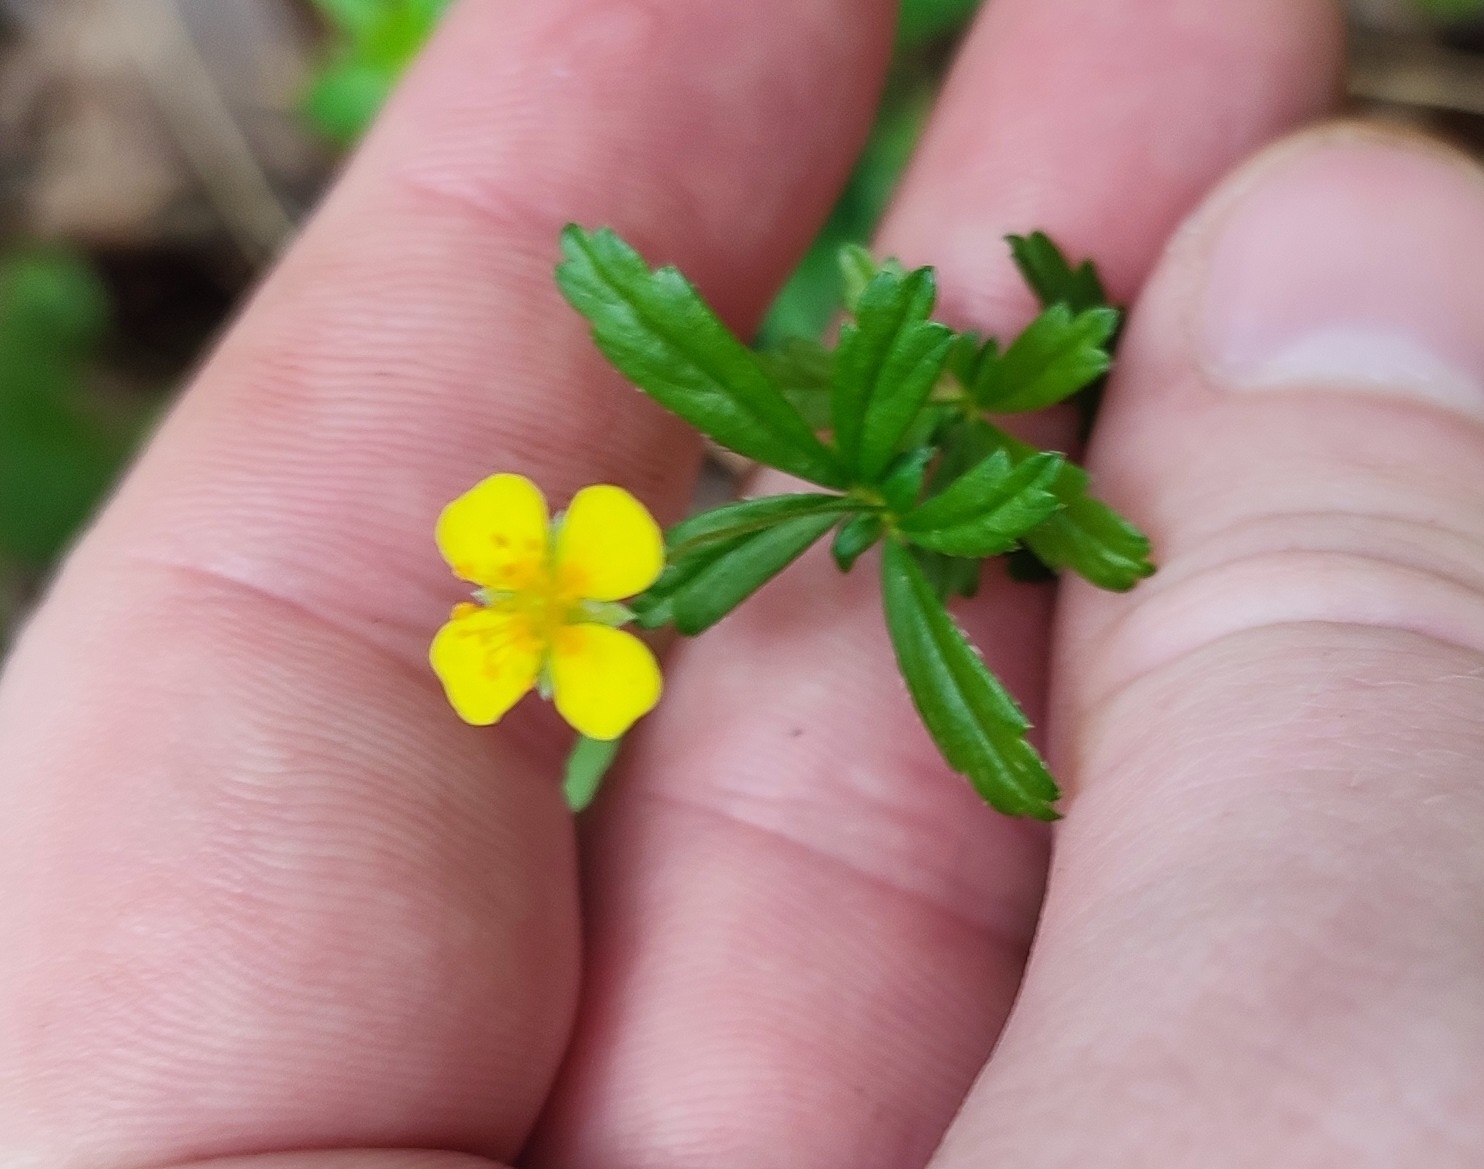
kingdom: Plantae
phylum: Tracheophyta
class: Magnoliopsida
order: Rosales
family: Rosaceae
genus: Potentilla
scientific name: Potentilla erecta
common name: Tormentil
